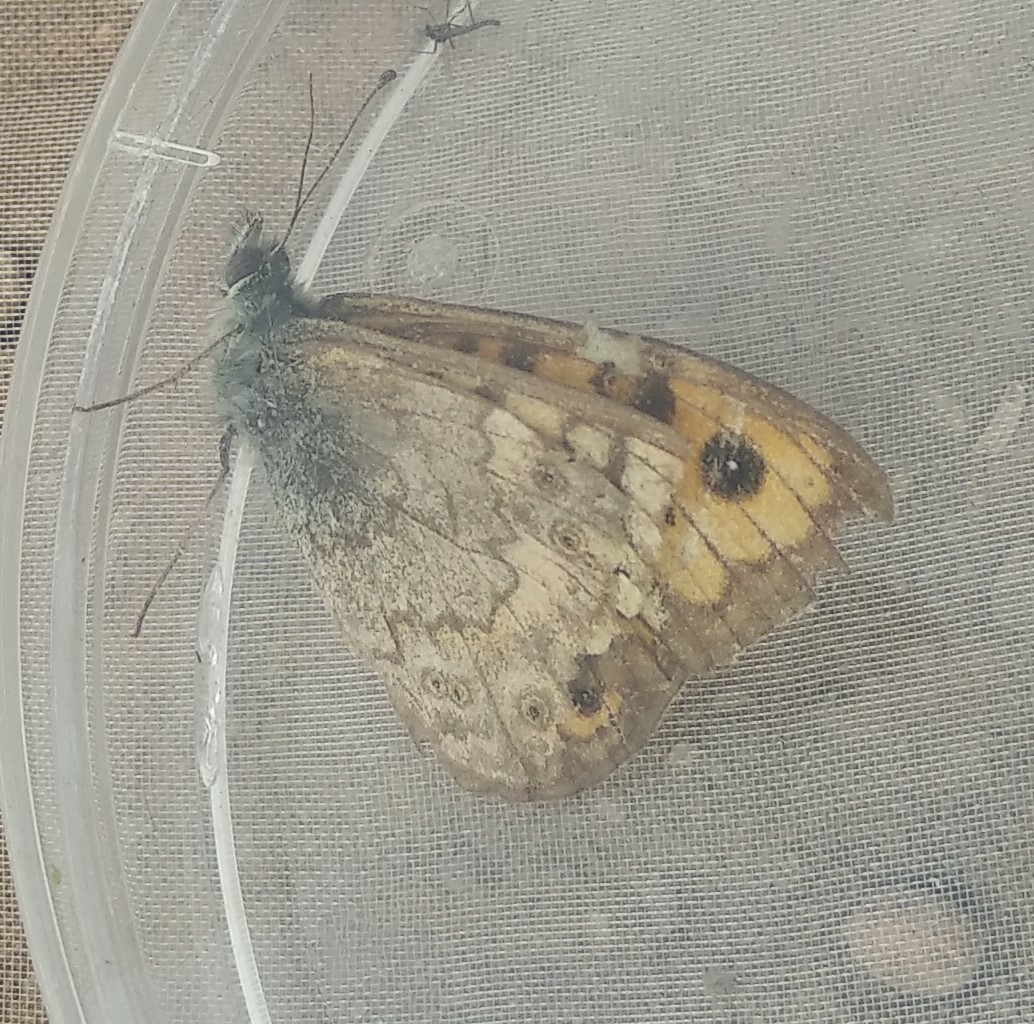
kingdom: Animalia
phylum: Arthropoda
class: Insecta
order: Lepidoptera
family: Nymphalidae
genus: Pararge
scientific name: Pararge Lasiommata megera
